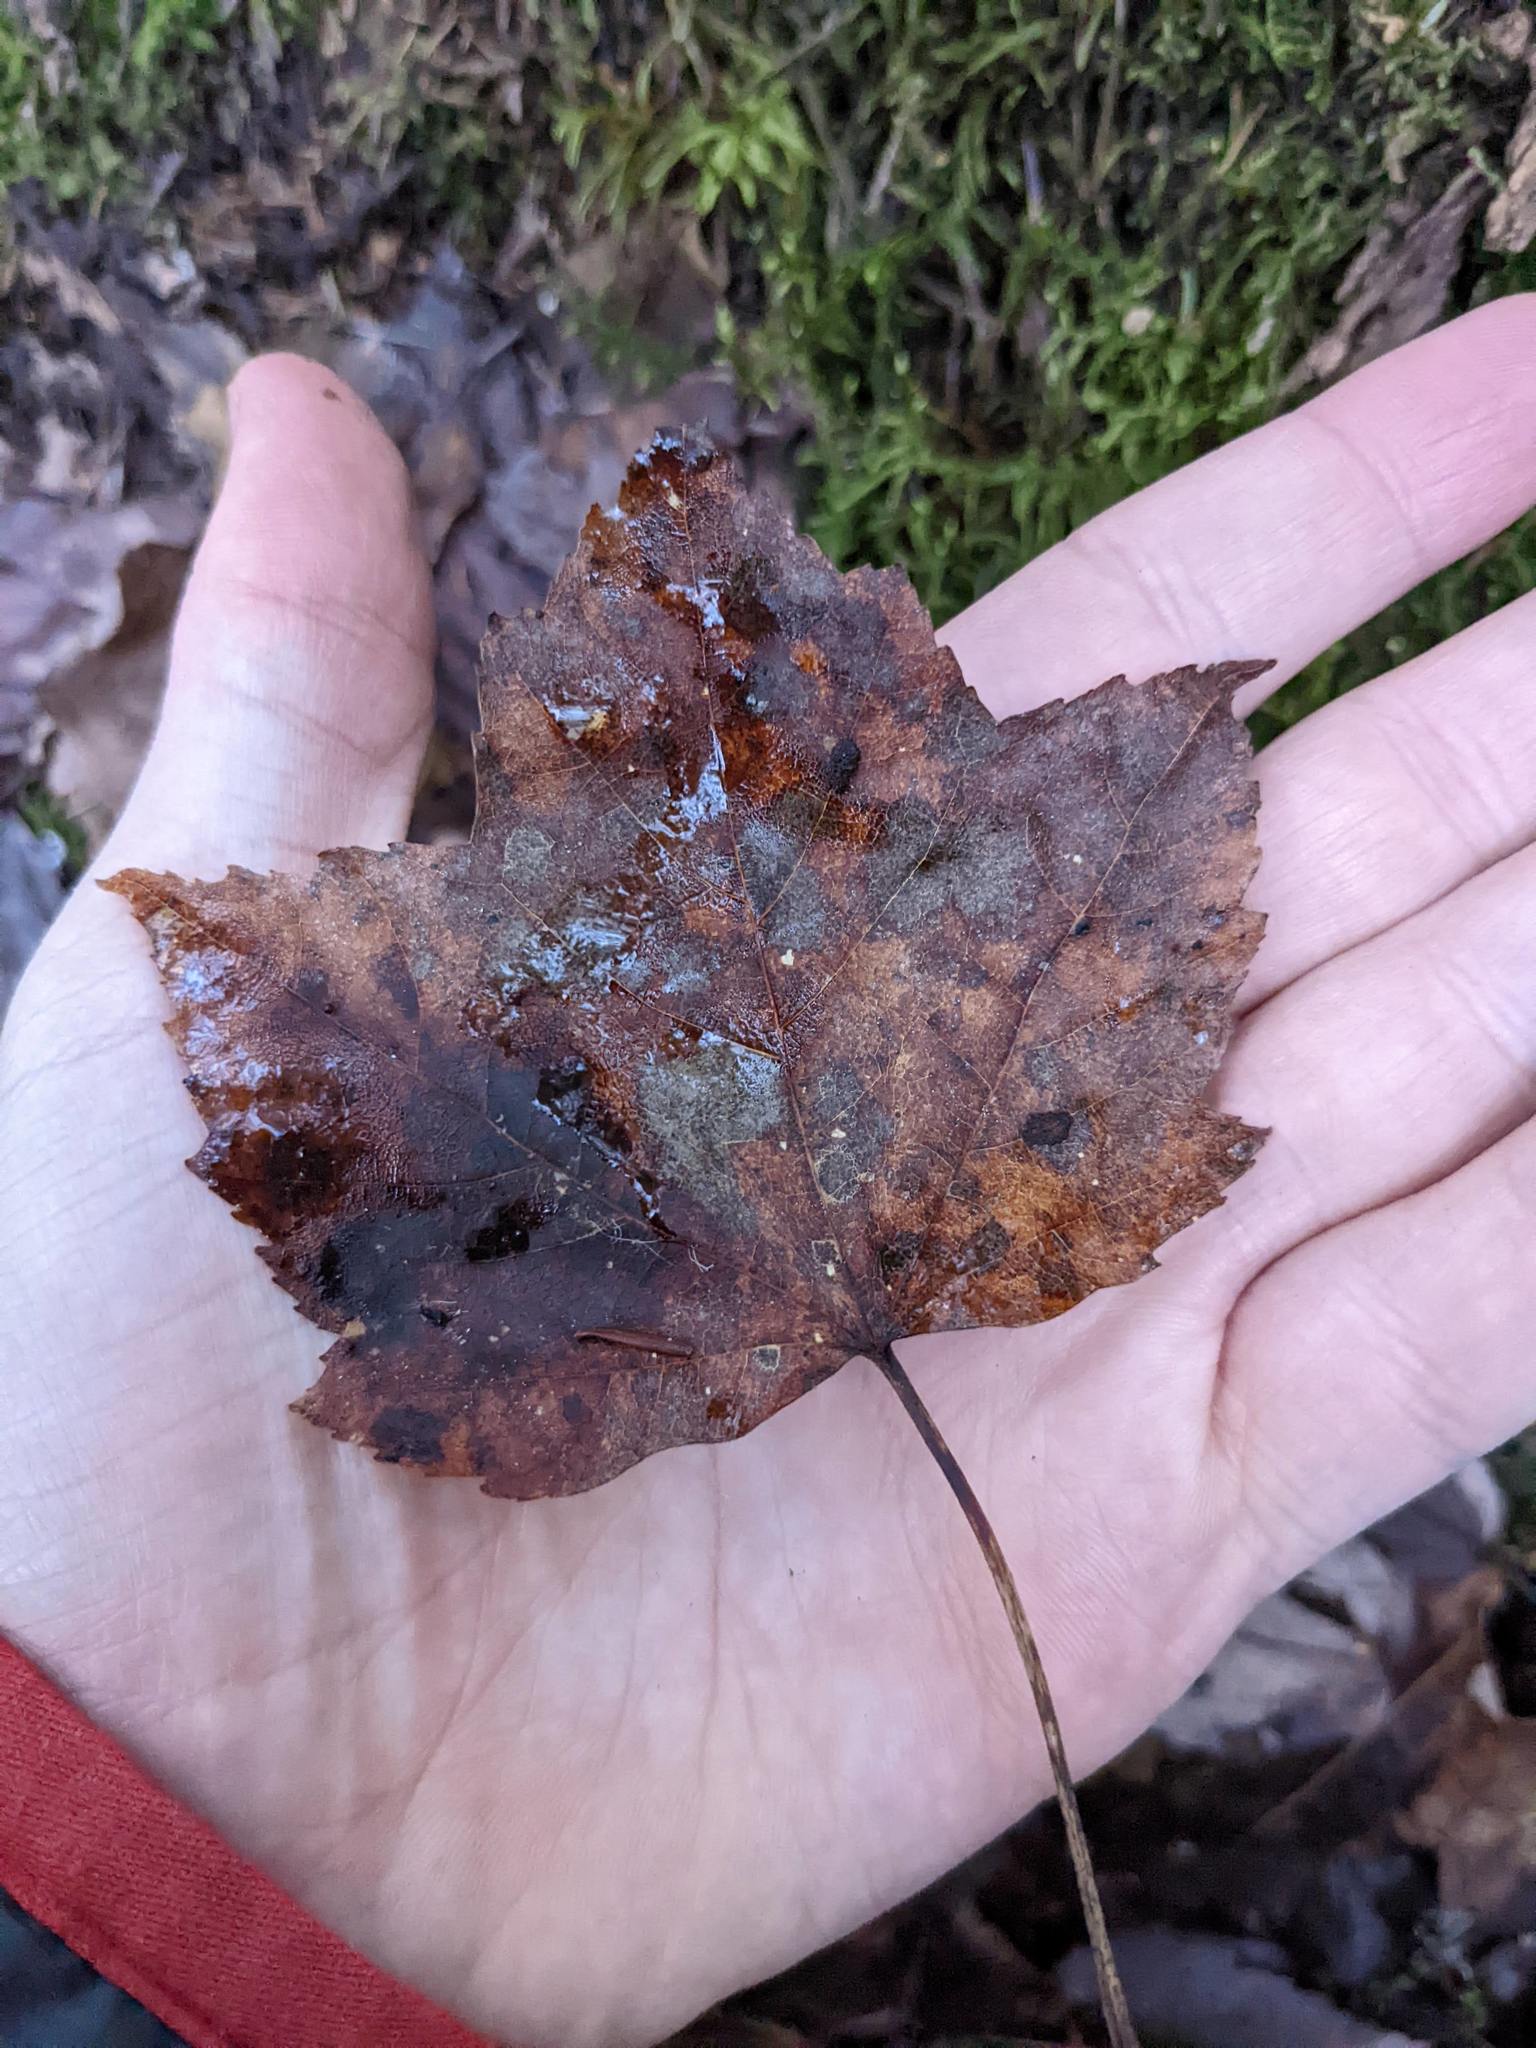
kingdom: Plantae
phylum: Tracheophyta
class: Magnoliopsida
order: Sapindales
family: Sapindaceae
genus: Acer
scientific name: Acer rubrum
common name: Red maple
